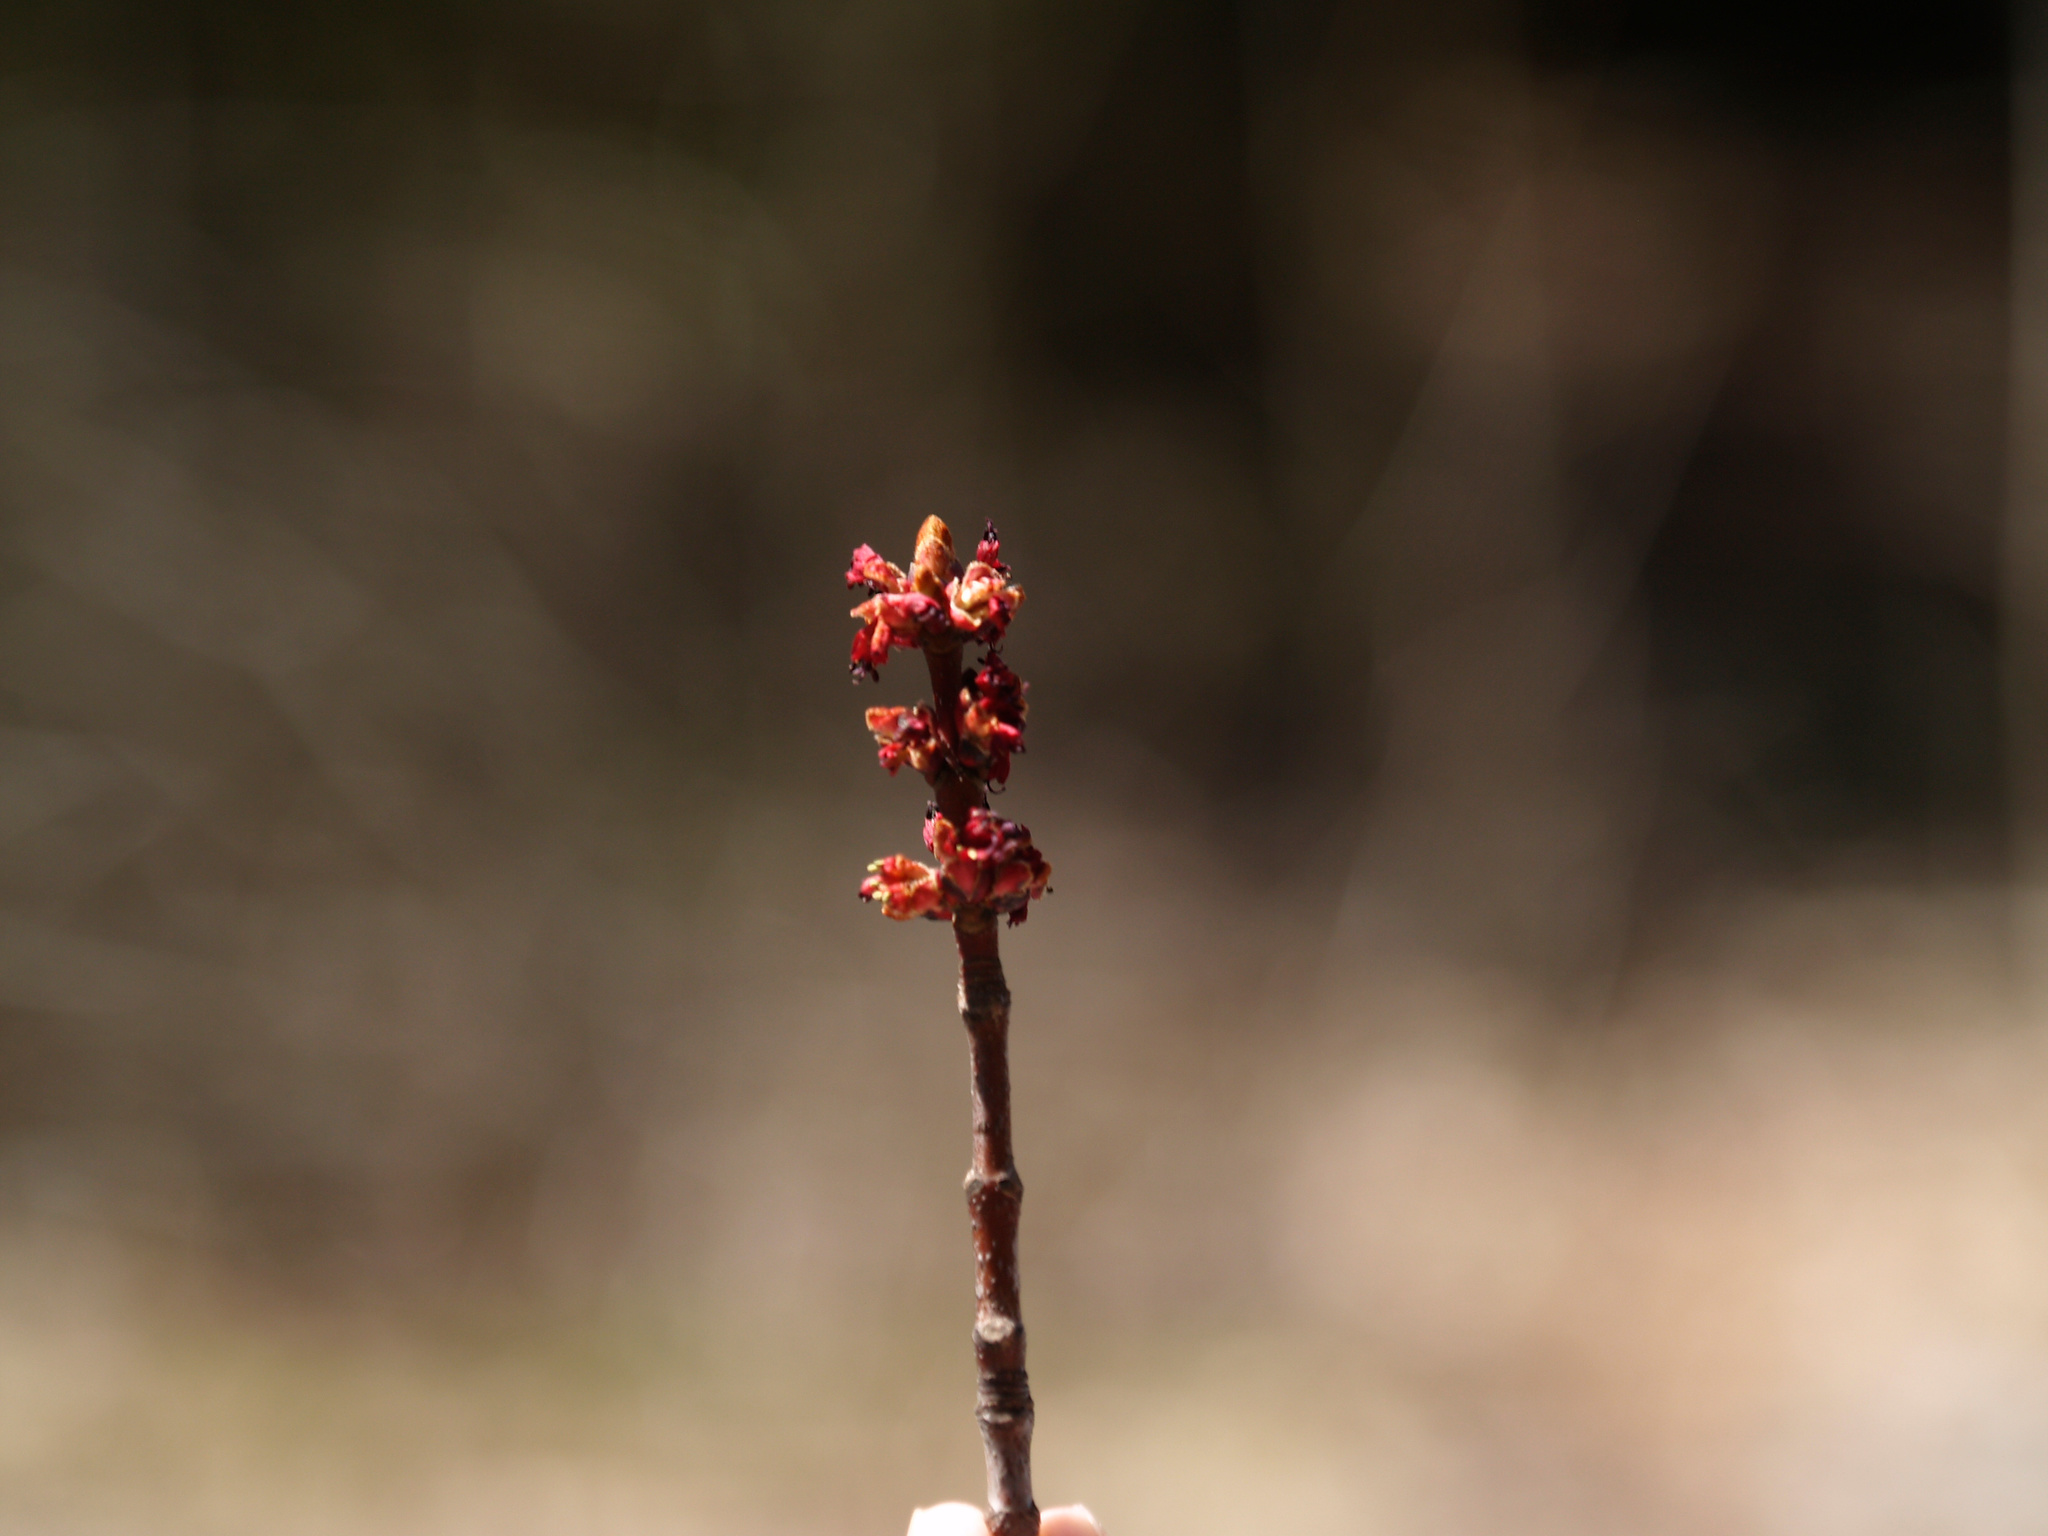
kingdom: Plantae
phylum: Tracheophyta
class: Magnoliopsida
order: Sapindales
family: Sapindaceae
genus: Acer
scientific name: Acer rubrum
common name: Red maple
